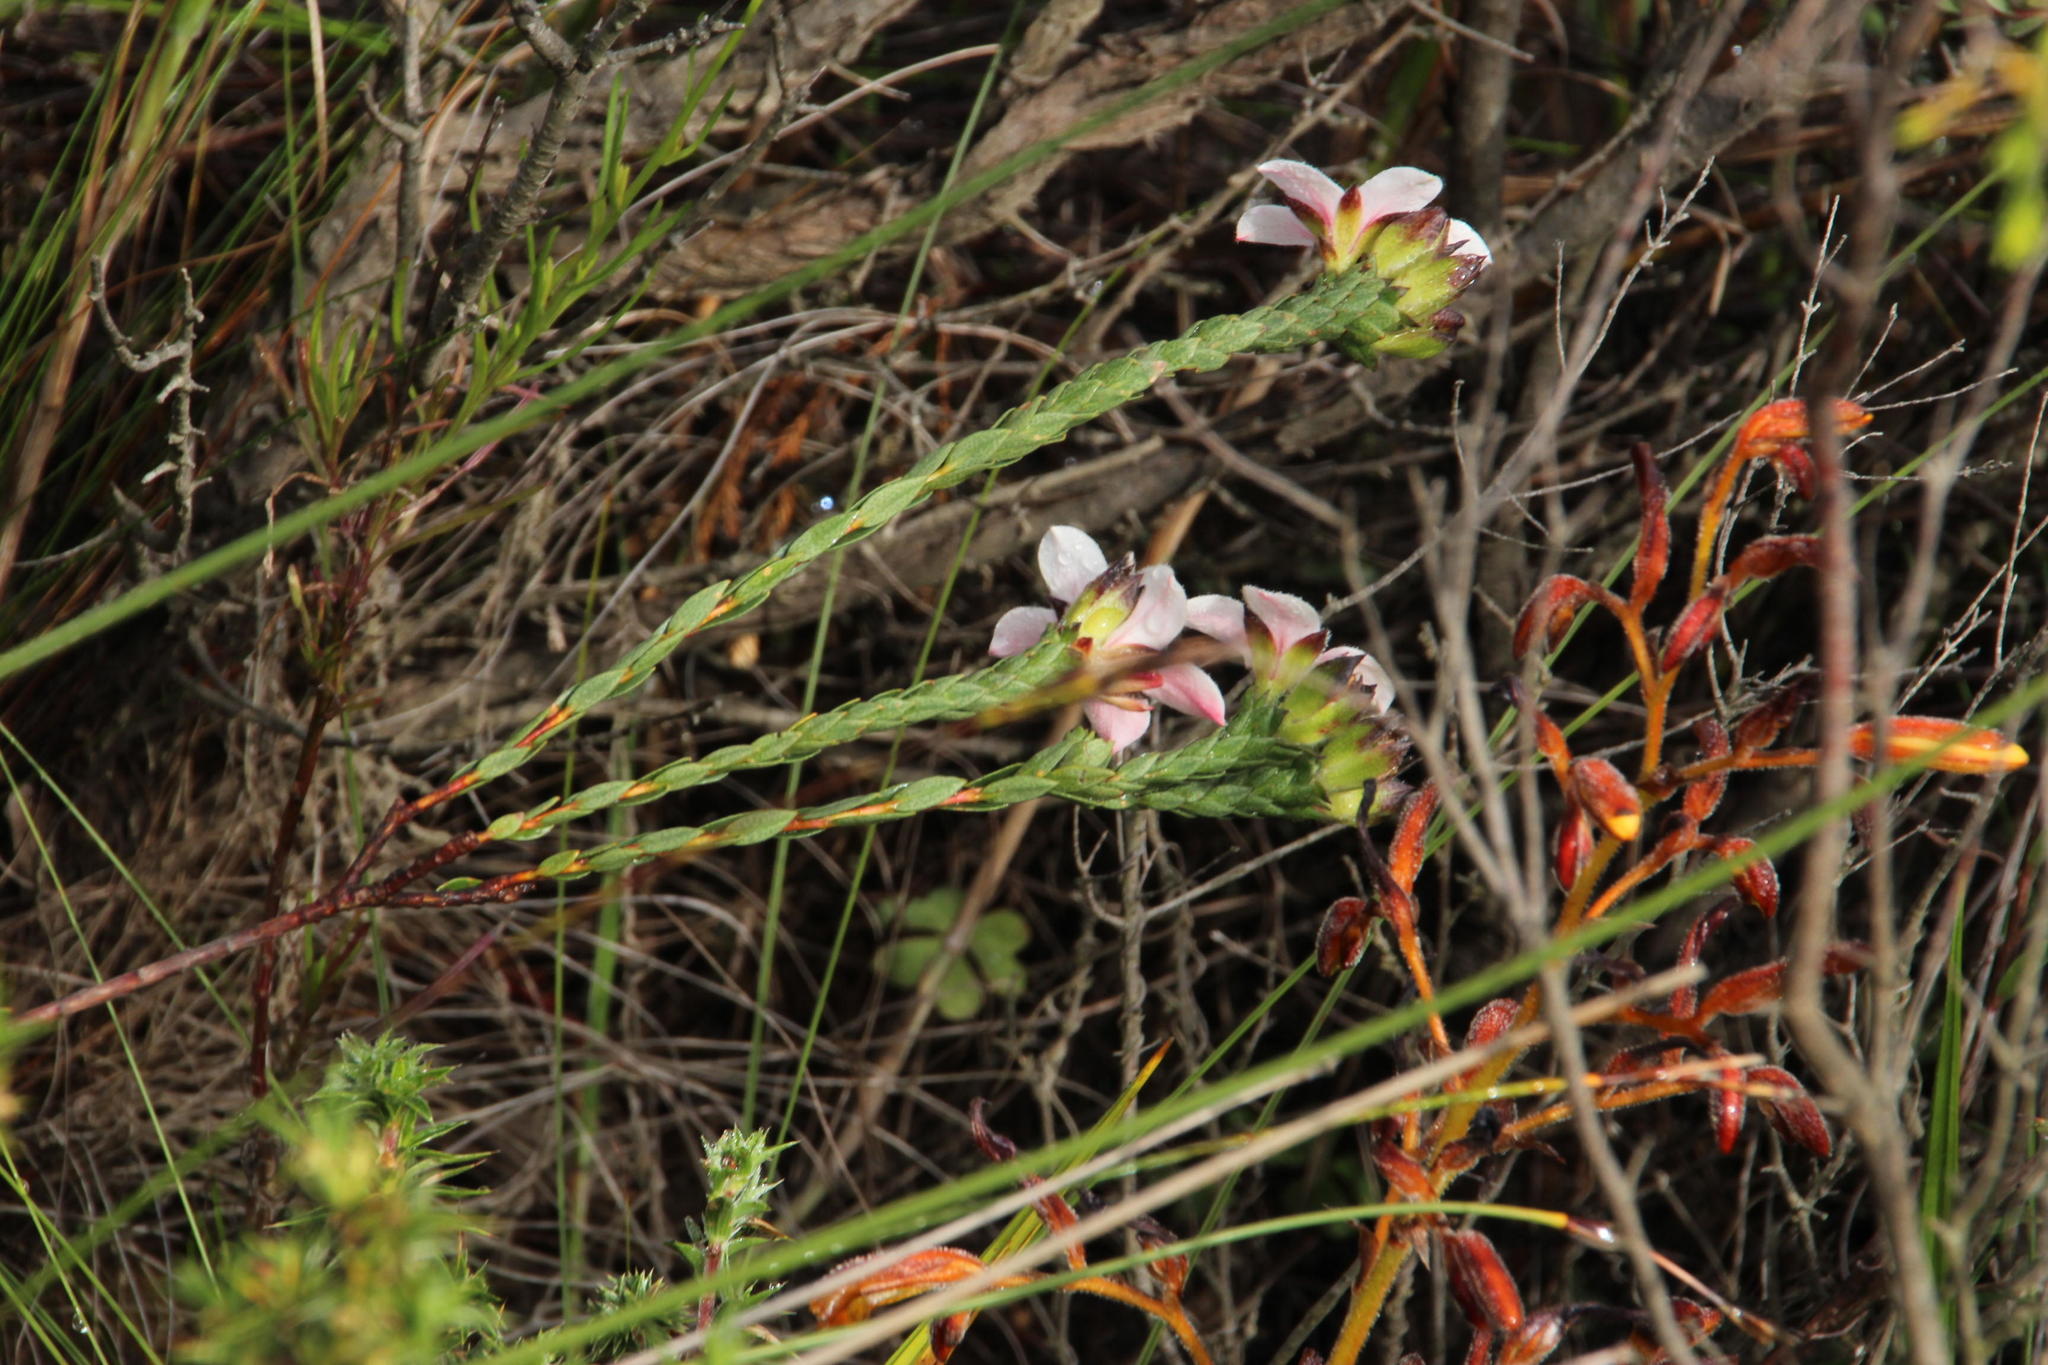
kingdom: Plantae
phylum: Tracheophyta
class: Magnoliopsida
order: Sapindales
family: Rutaceae
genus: Adenandra
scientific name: Adenandra villosa
